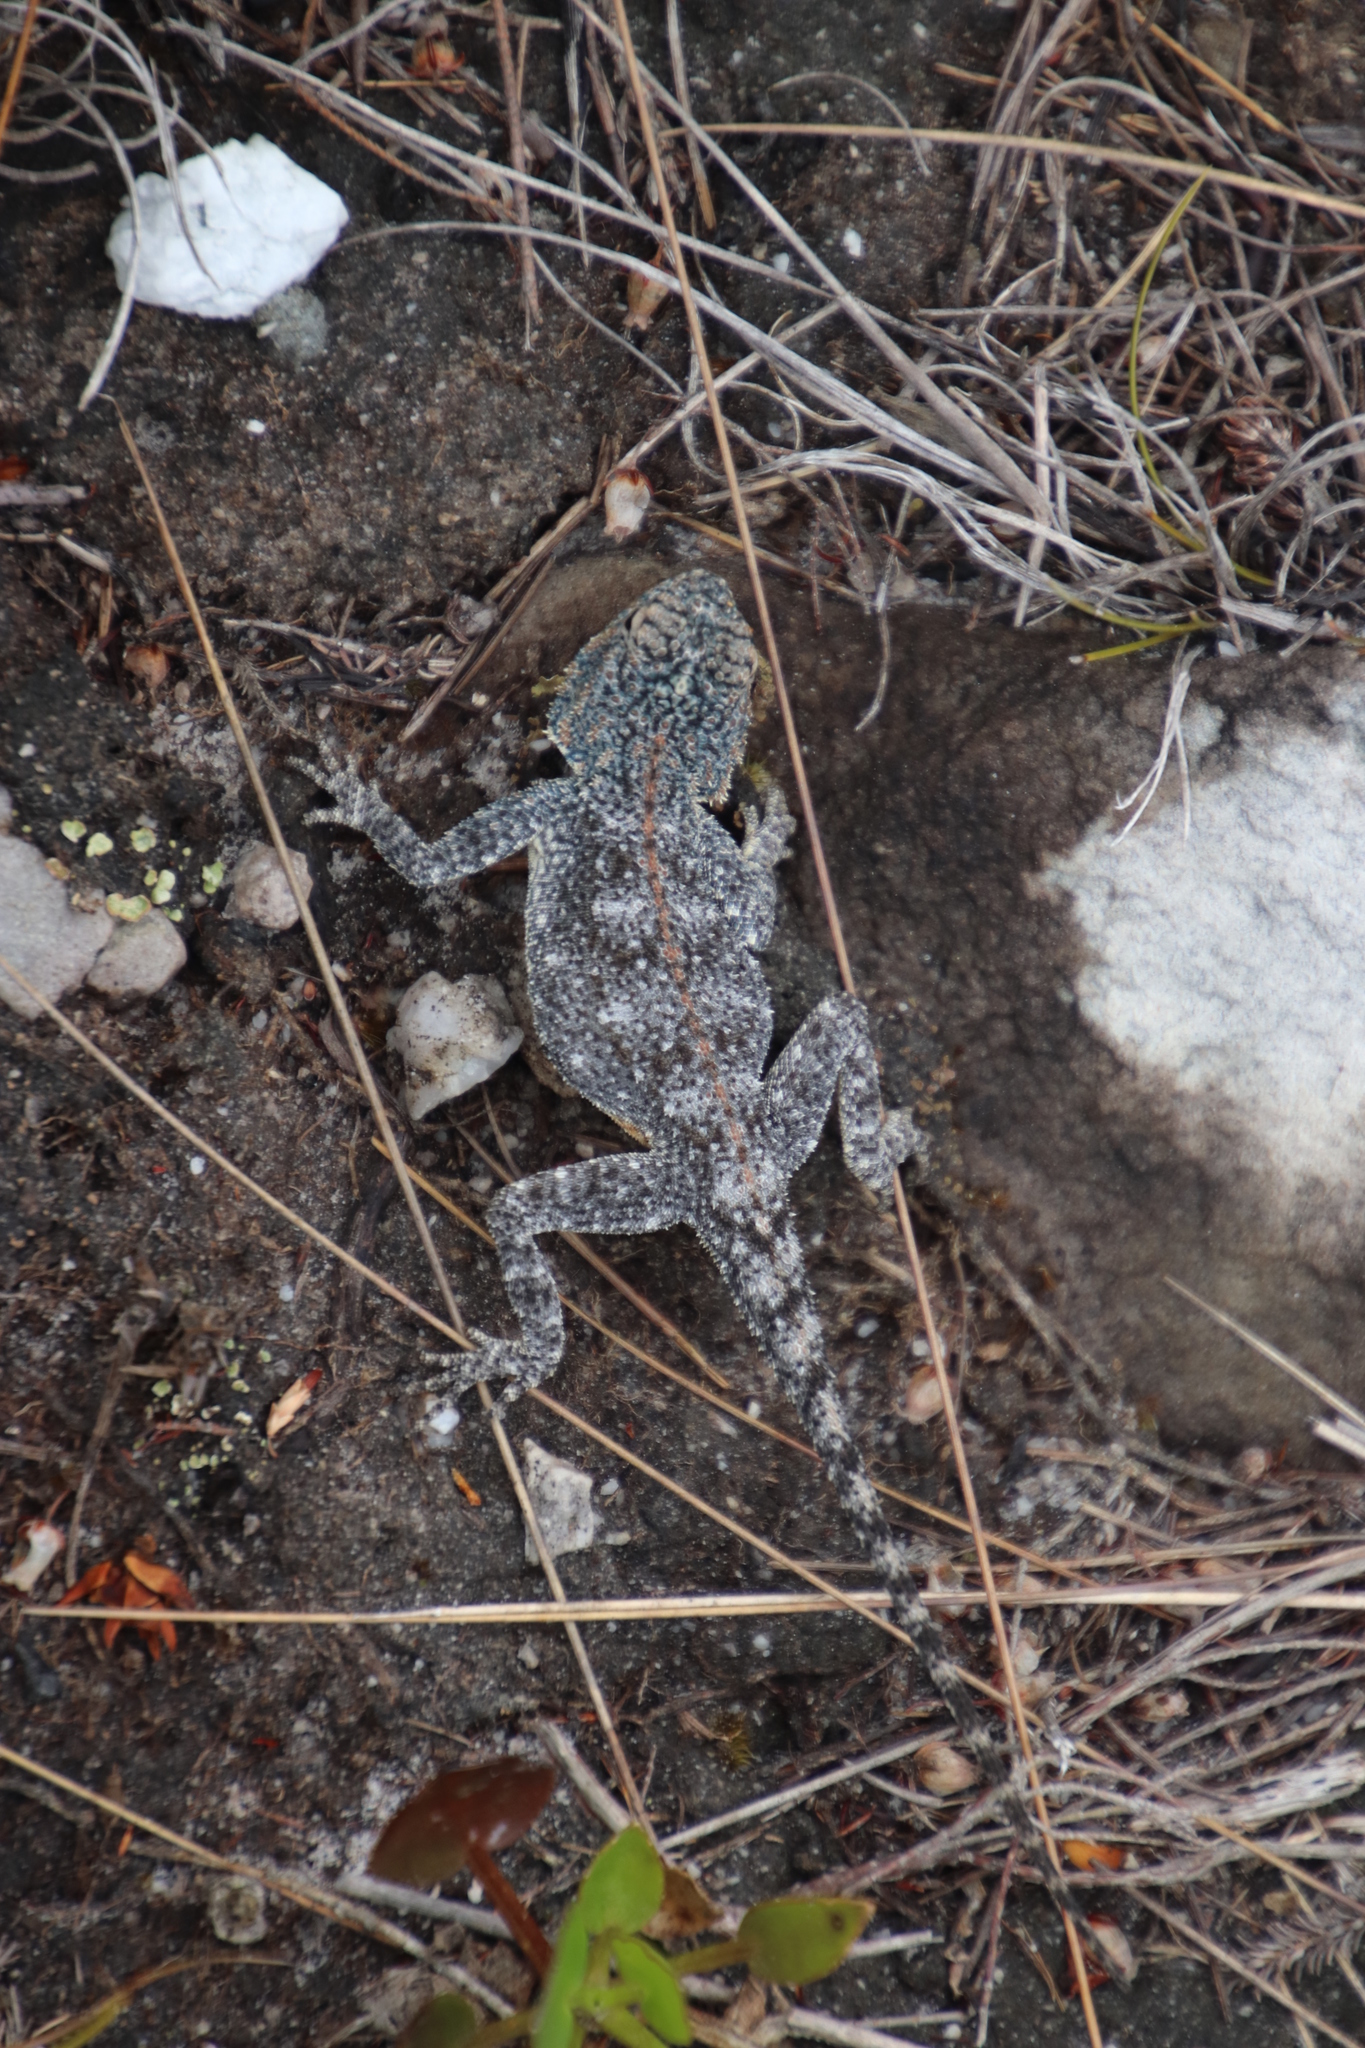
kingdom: Animalia
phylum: Chordata
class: Squamata
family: Agamidae
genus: Agama
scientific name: Agama atra
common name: Southern african rock agama
